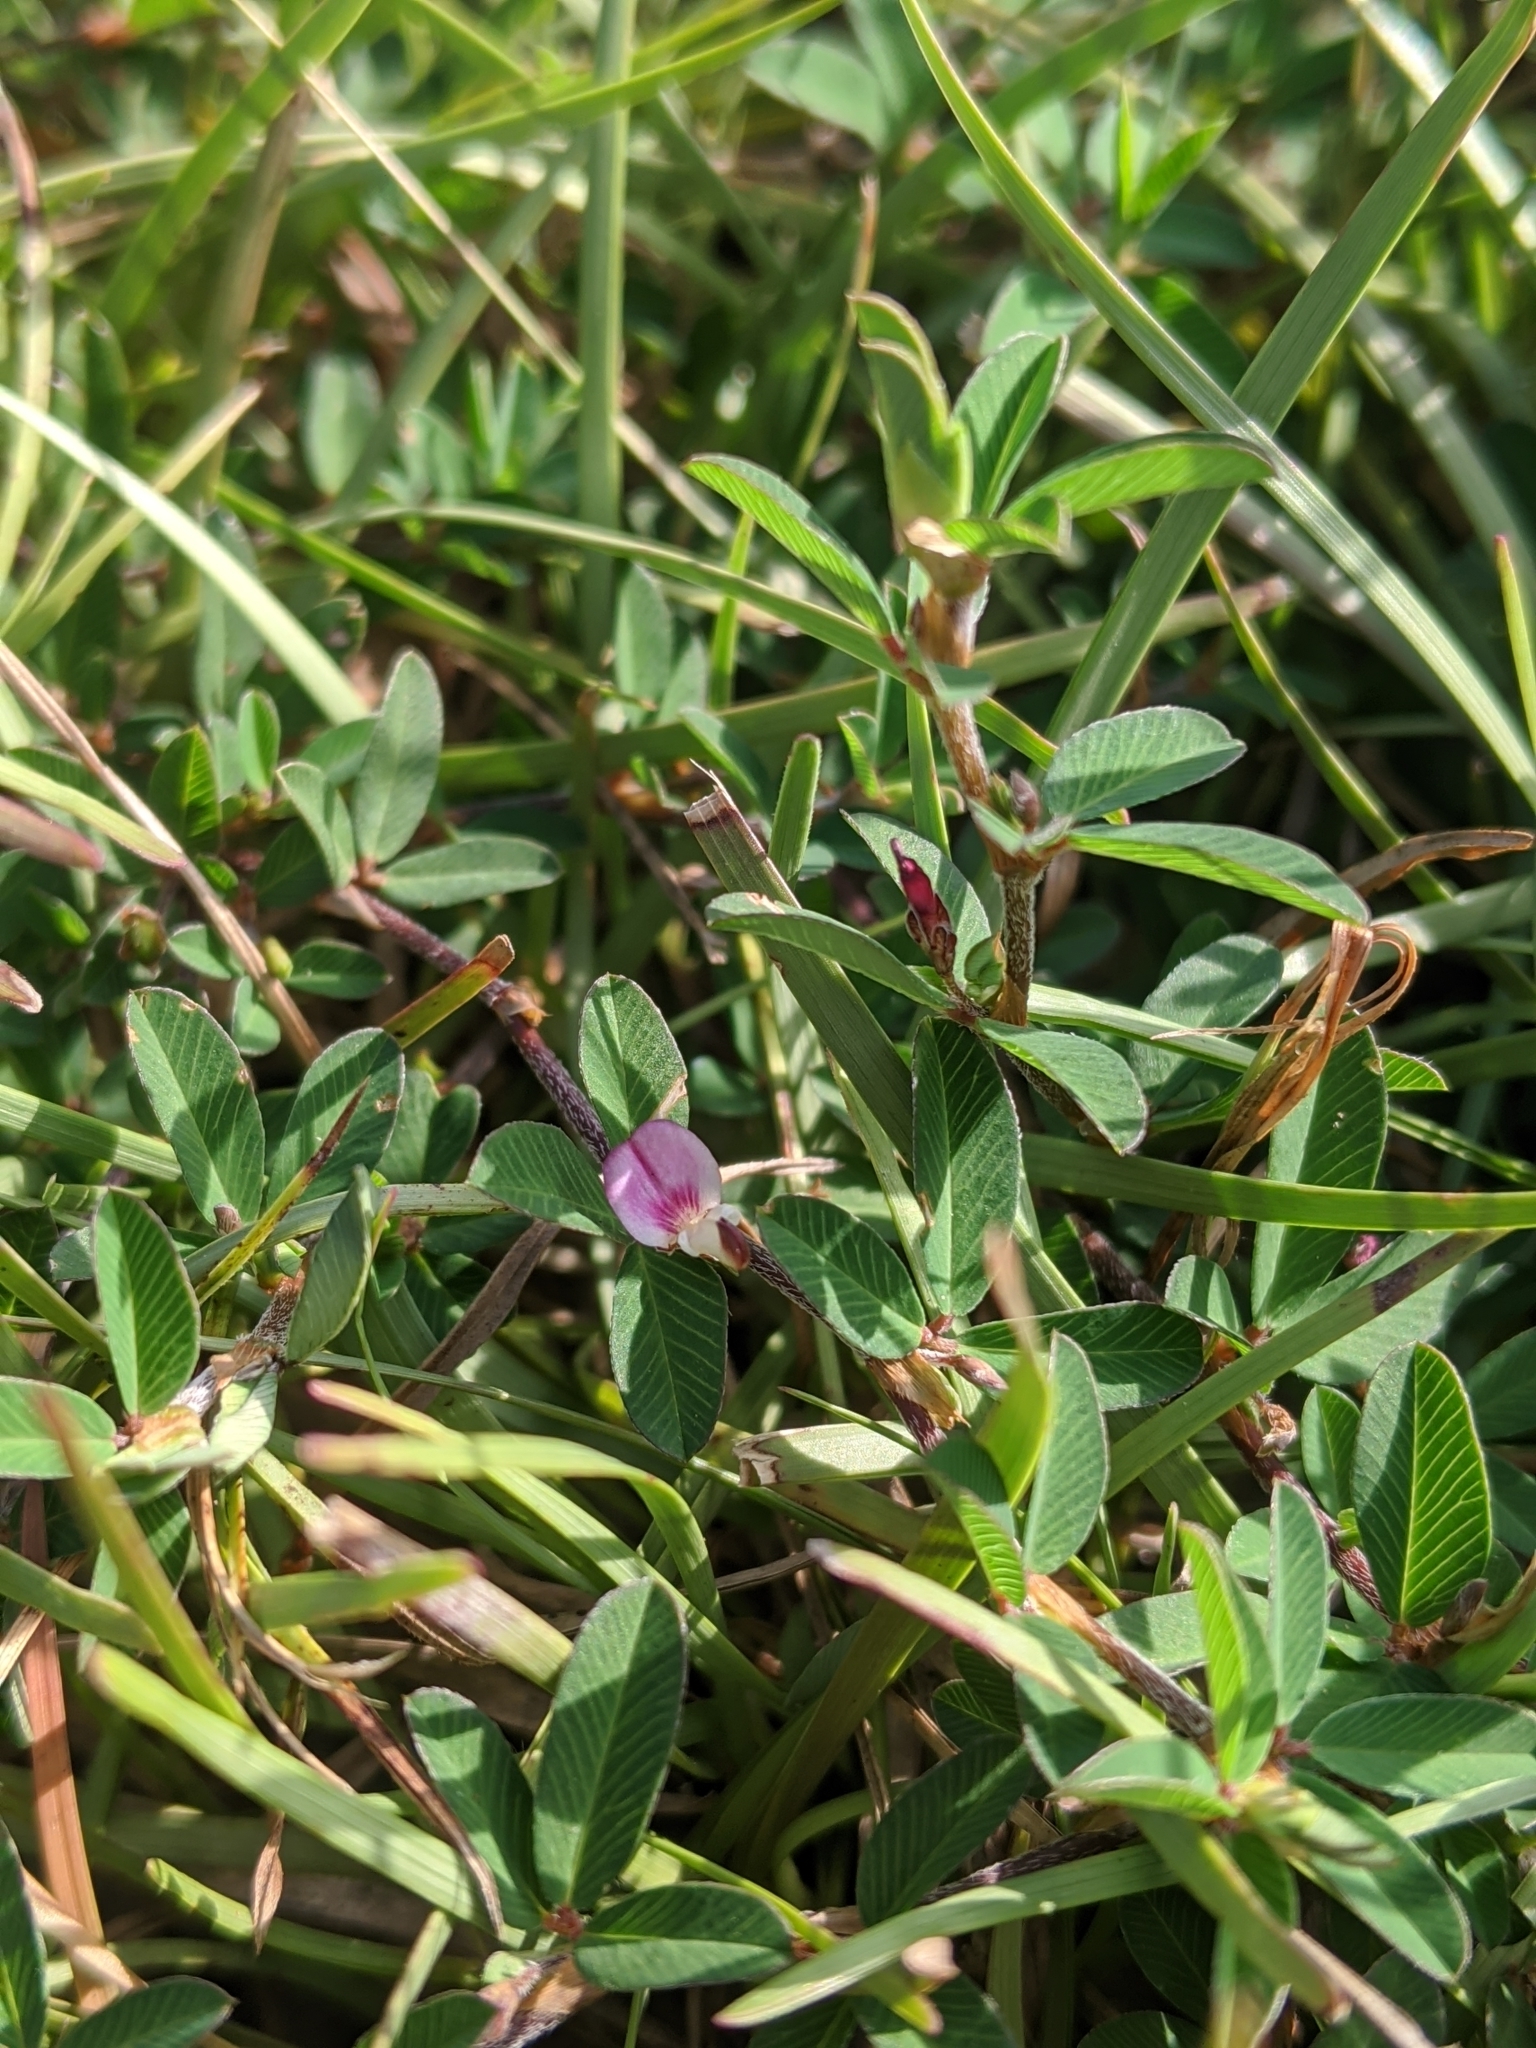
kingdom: Plantae
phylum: Tracheophyta
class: Magnoliopsida
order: Fabales
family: Fabaceae
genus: Kummerowia
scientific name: Kummerowia striata
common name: Japanese clover
